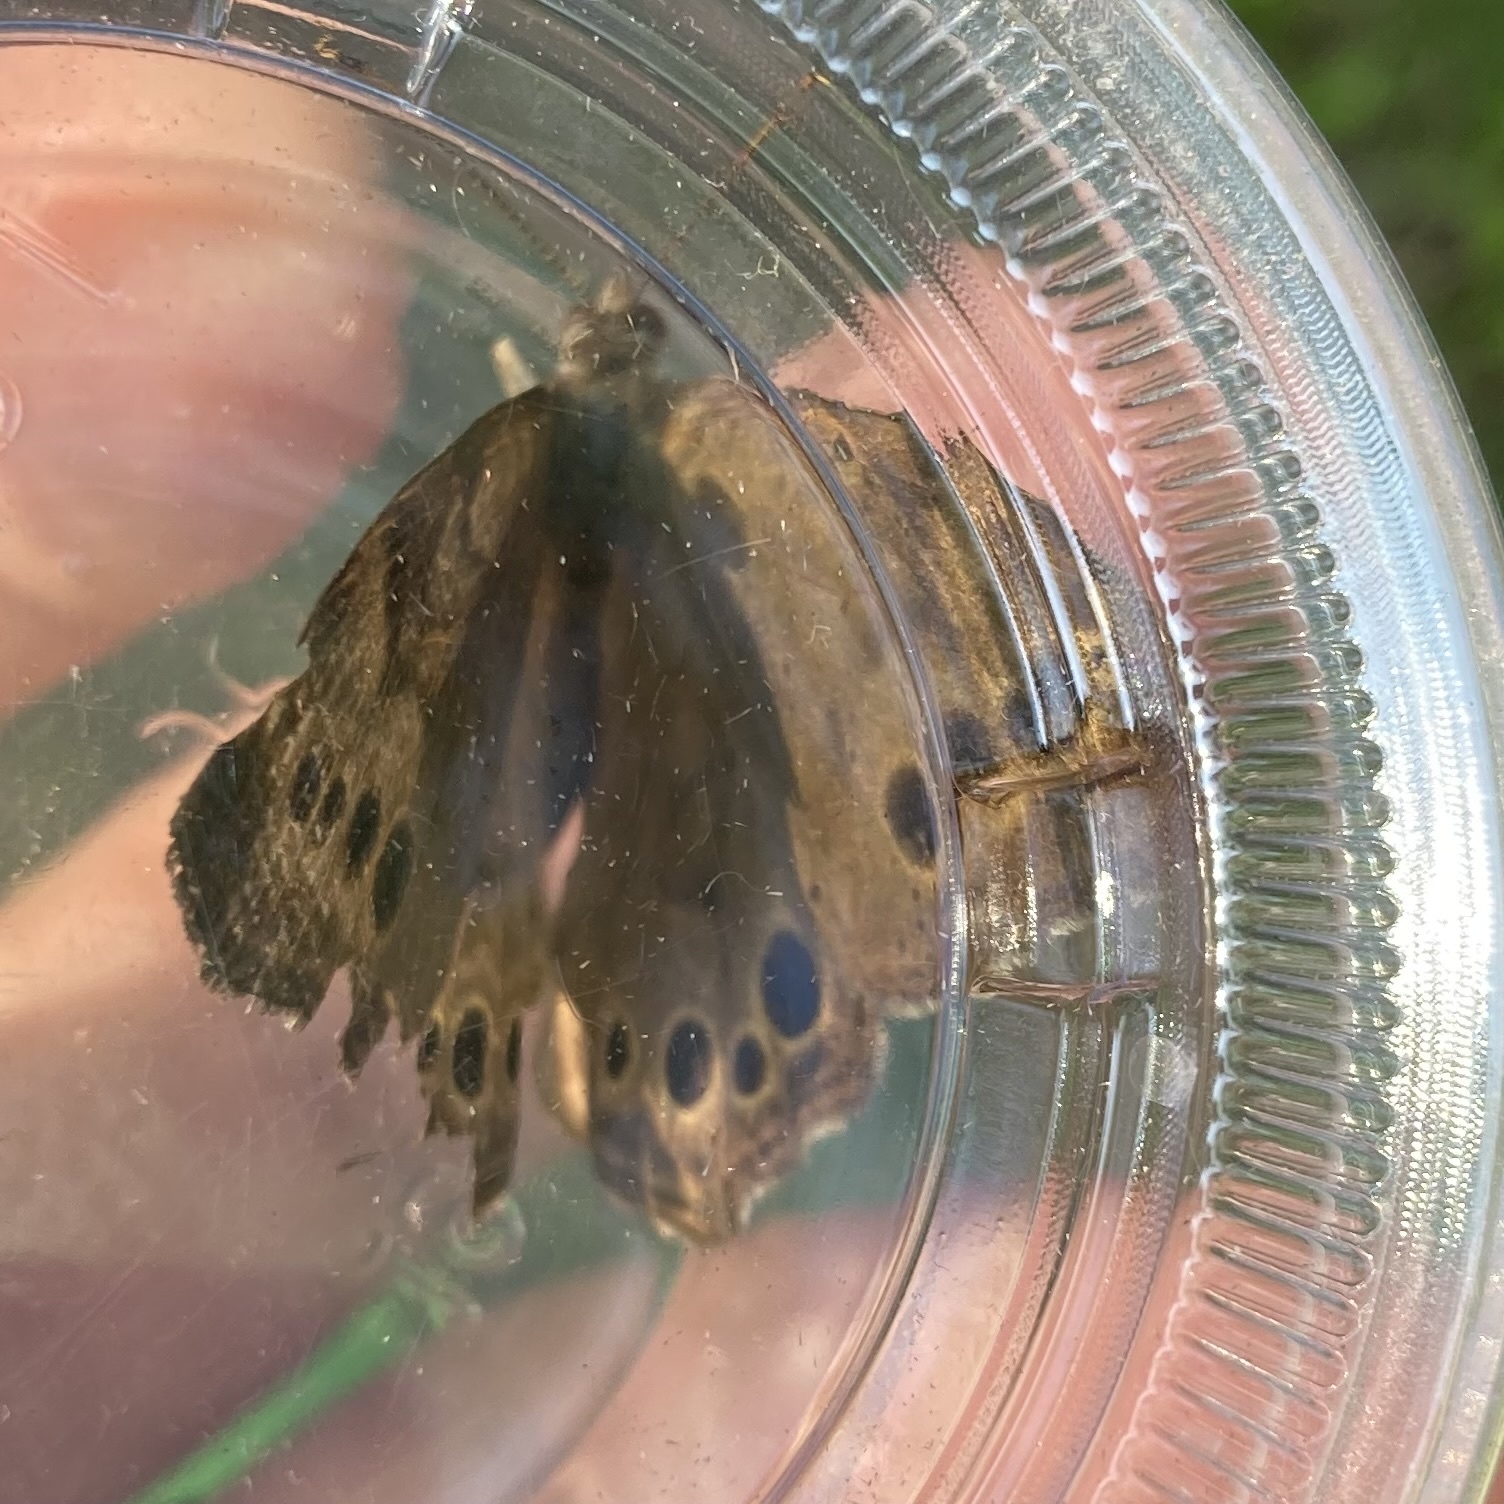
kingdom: Animalia
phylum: Arthropoda
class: Insecta
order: Lepidoptera
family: Nymphalidae
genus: Lethe
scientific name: Lethe anthedon
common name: Northern pearly-eye
